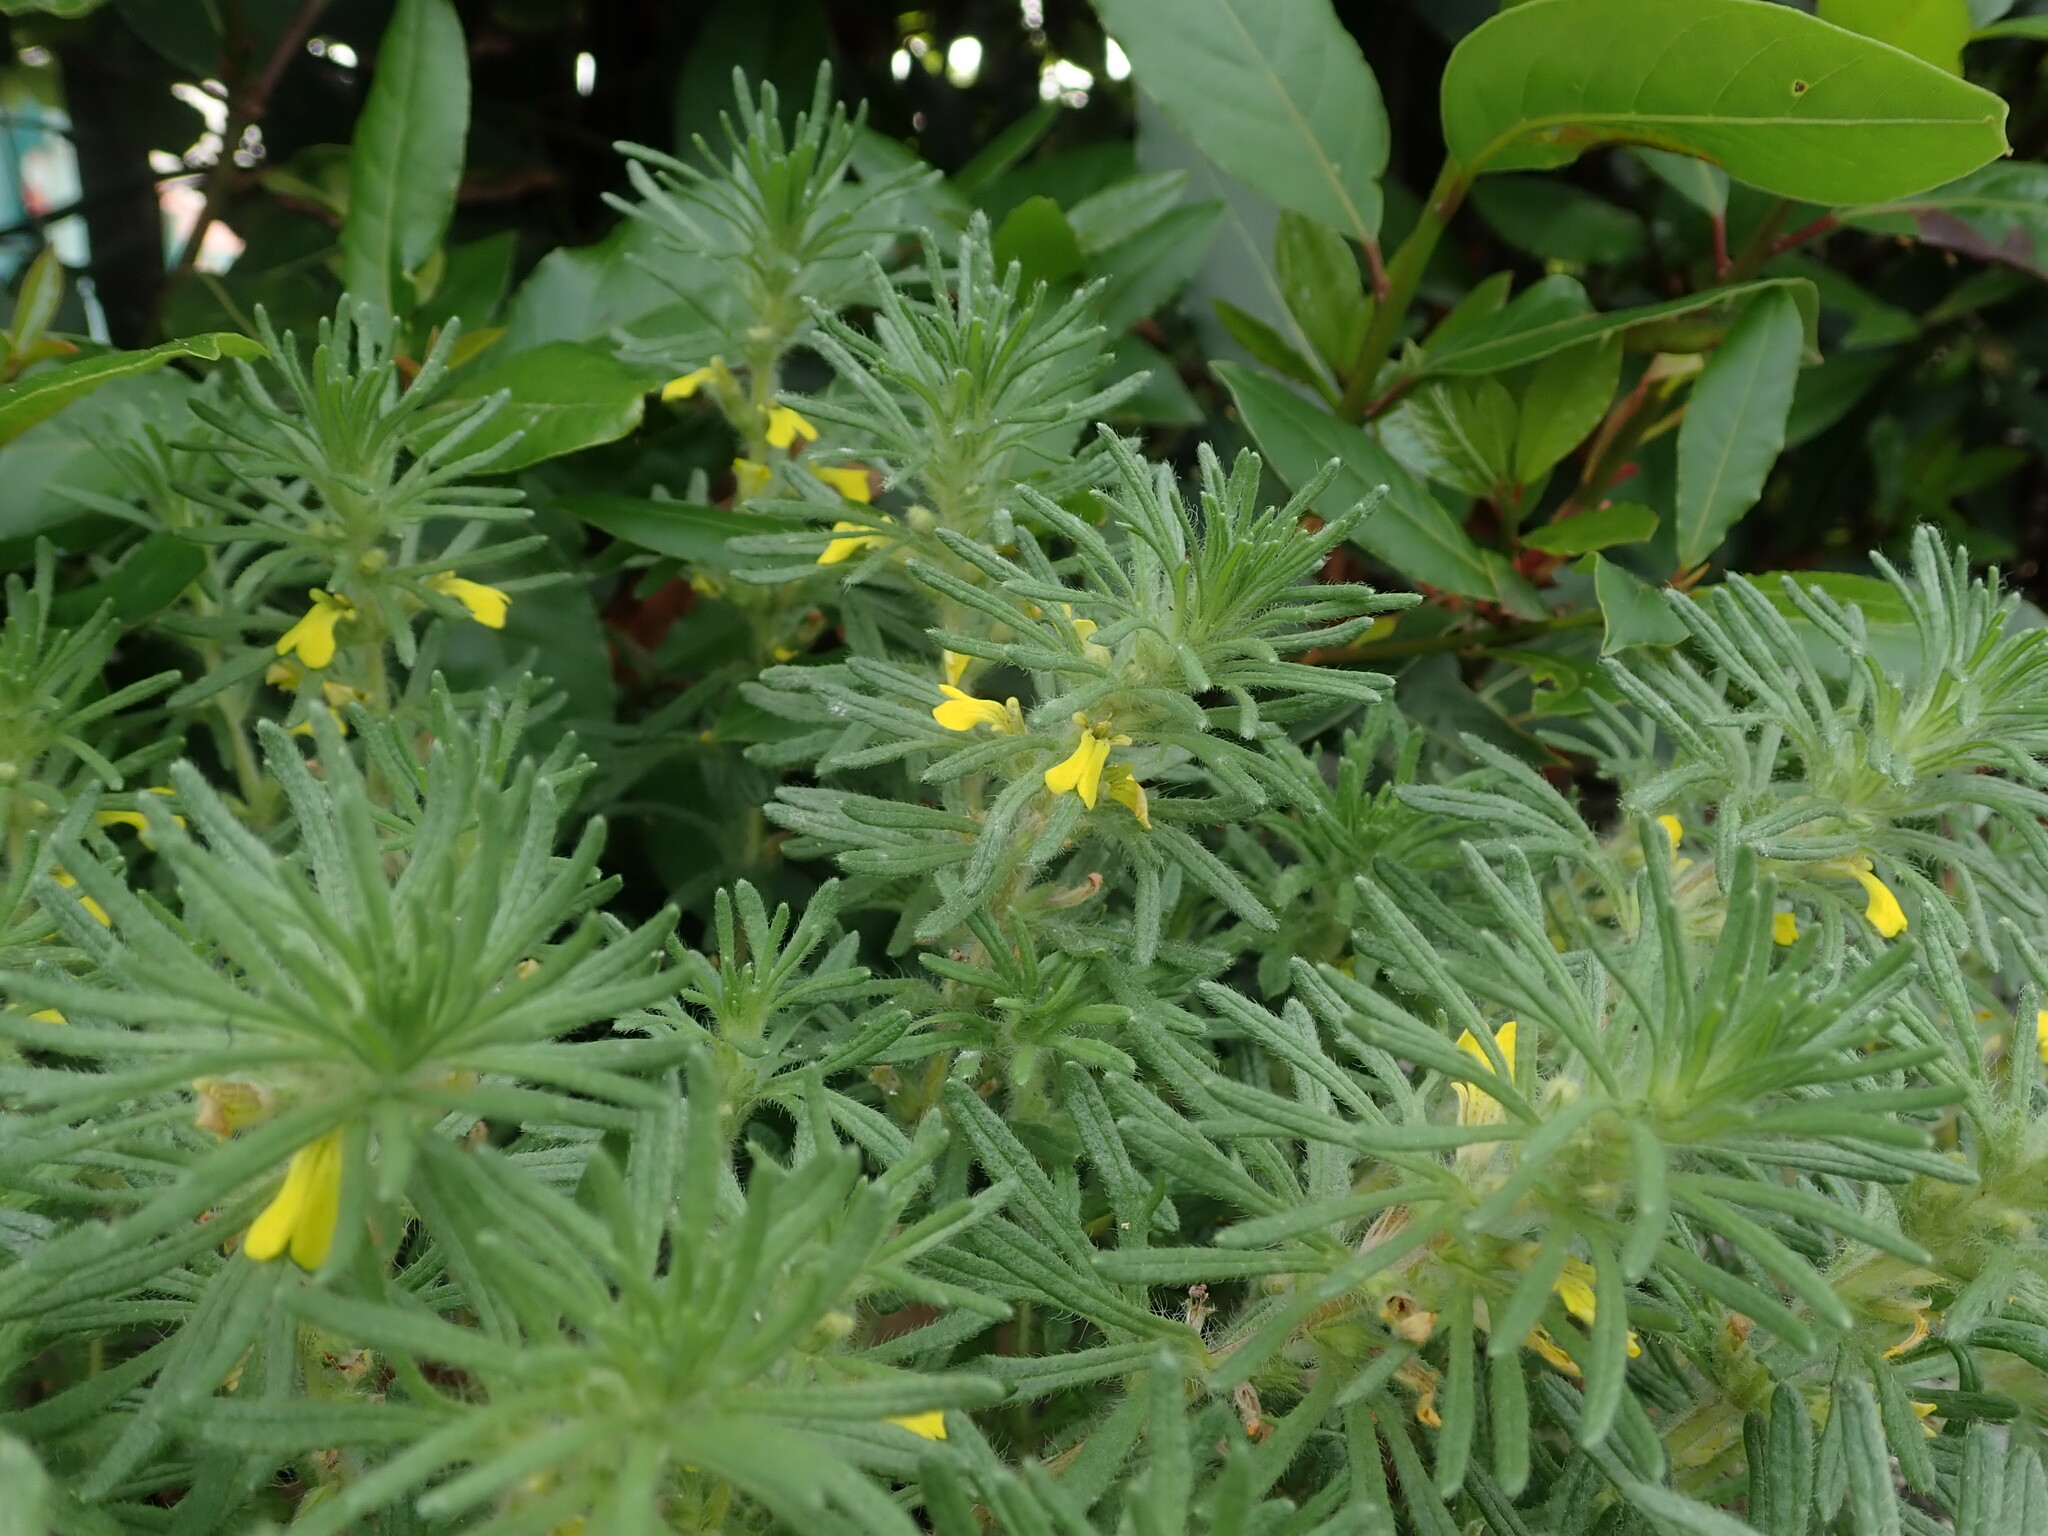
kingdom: Plantae
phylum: Tracheophyta
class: Magnoliopsida
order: Lamiales
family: Lamiaceae
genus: Ajuga
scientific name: Ajuga chamaepitys
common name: Ground-pine
